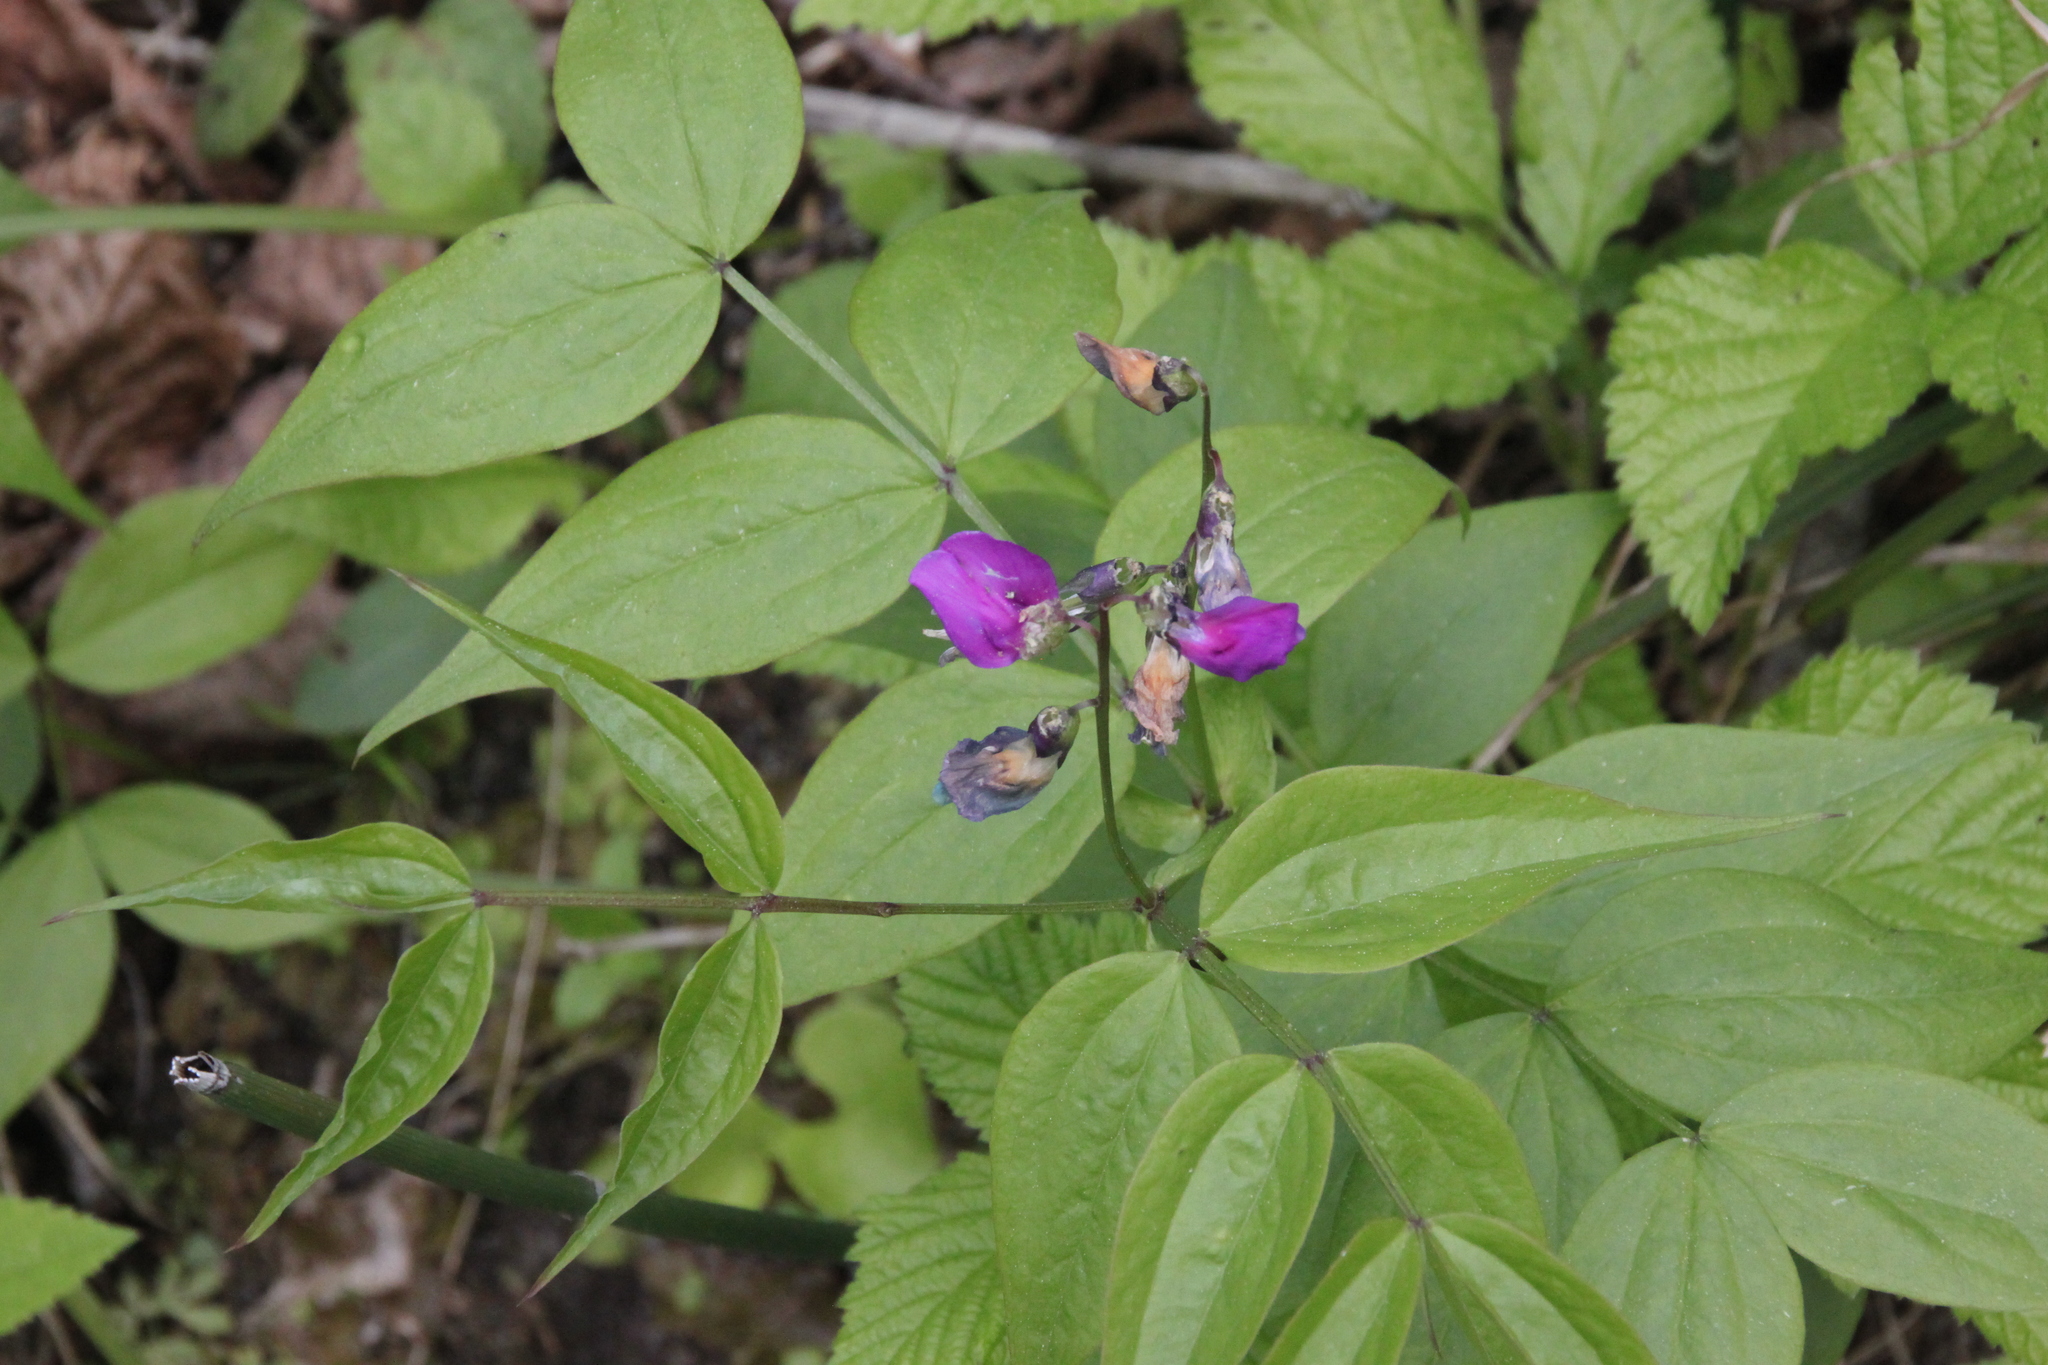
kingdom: Plantae
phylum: Tracheophyta
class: Magnoliopsida
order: Fabales
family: Fabaceae
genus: Lathyrus
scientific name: Lathyrus vernus
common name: Spring pea
